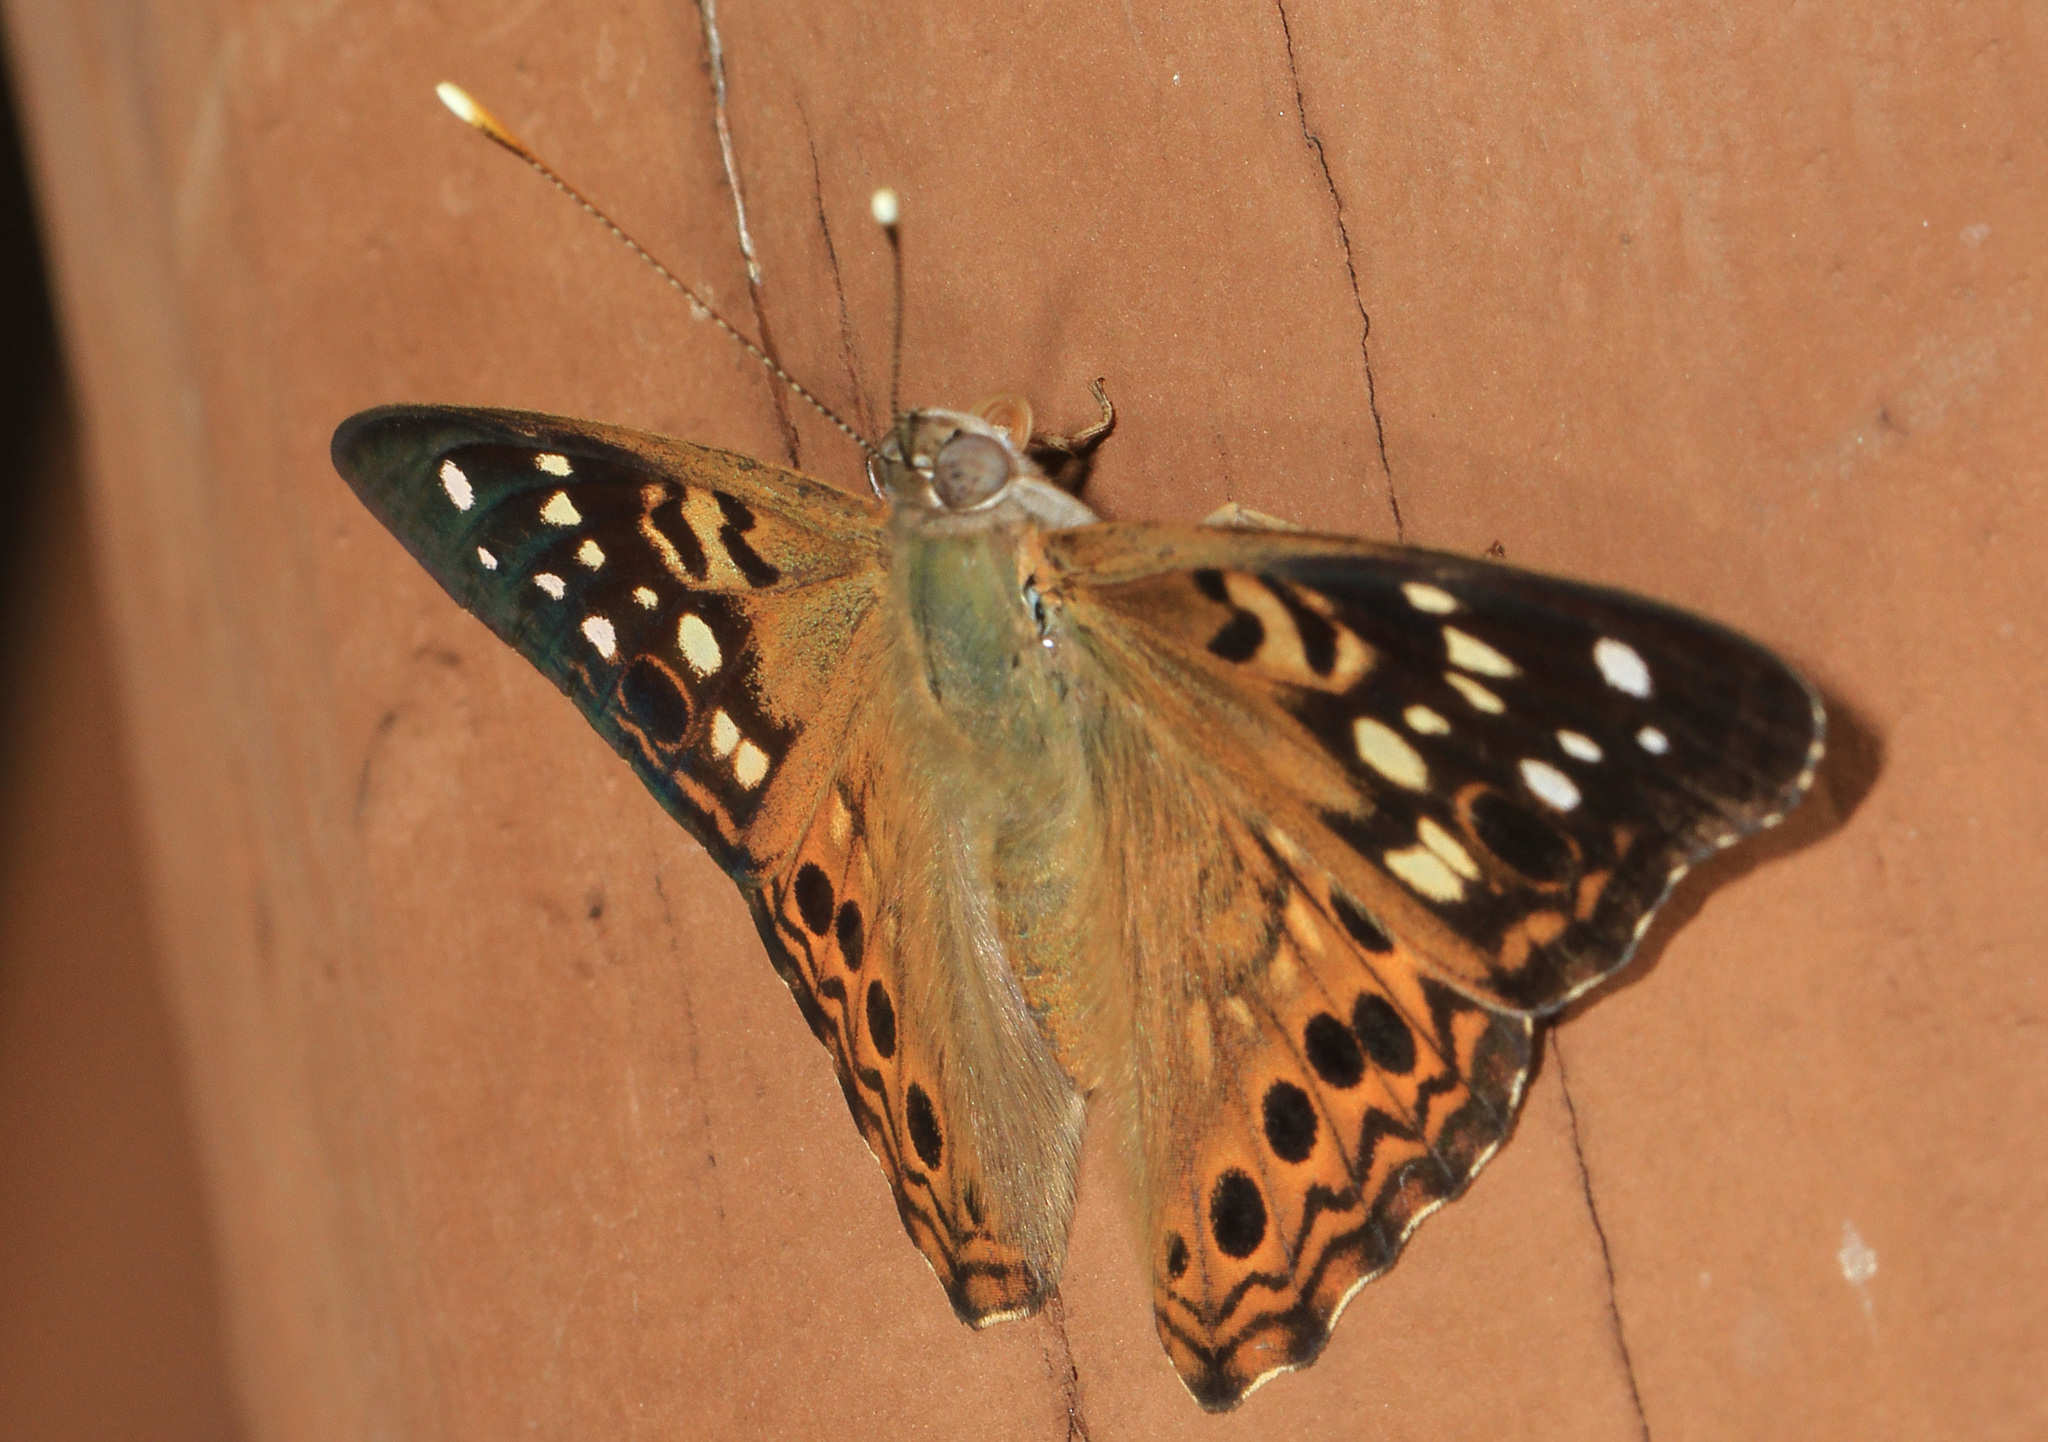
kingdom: Animalia
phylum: Arthropoda
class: Insecta
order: Lepidoptera
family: Nymphalidae
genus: Asterocampa
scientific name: Asterocampa celtis
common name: Hackberry emperor
